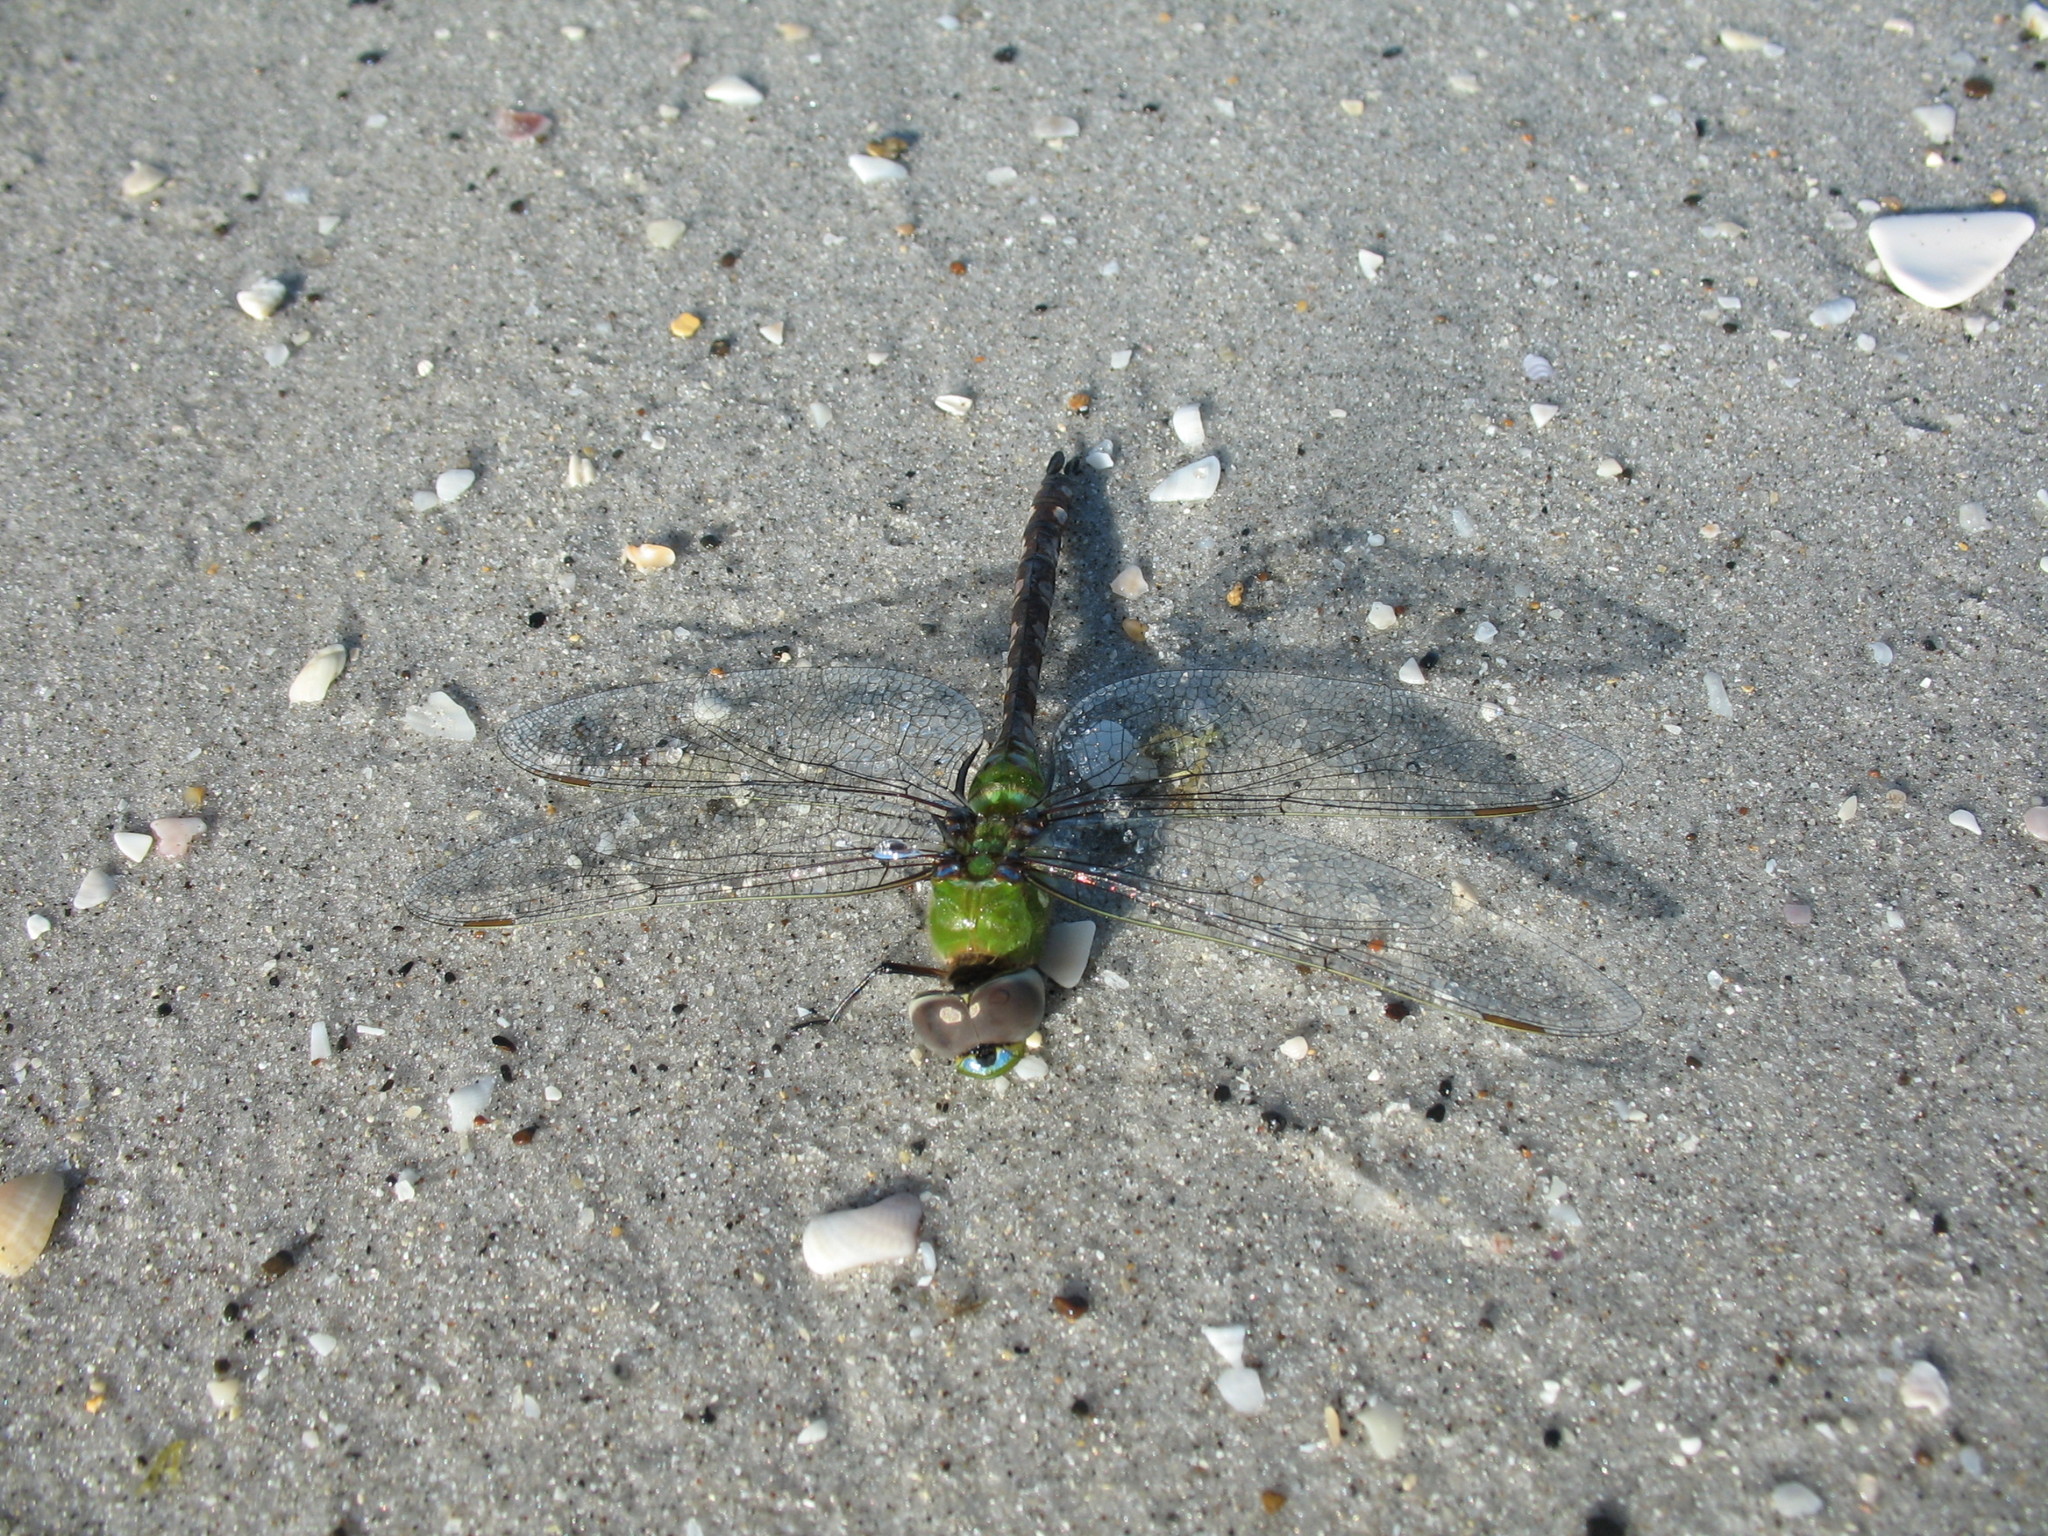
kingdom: Animalia
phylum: Arthropoda
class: Insecta
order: Odonata
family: Aeshnidae
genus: Anax
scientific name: Anax amazili
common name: Amazon darner
